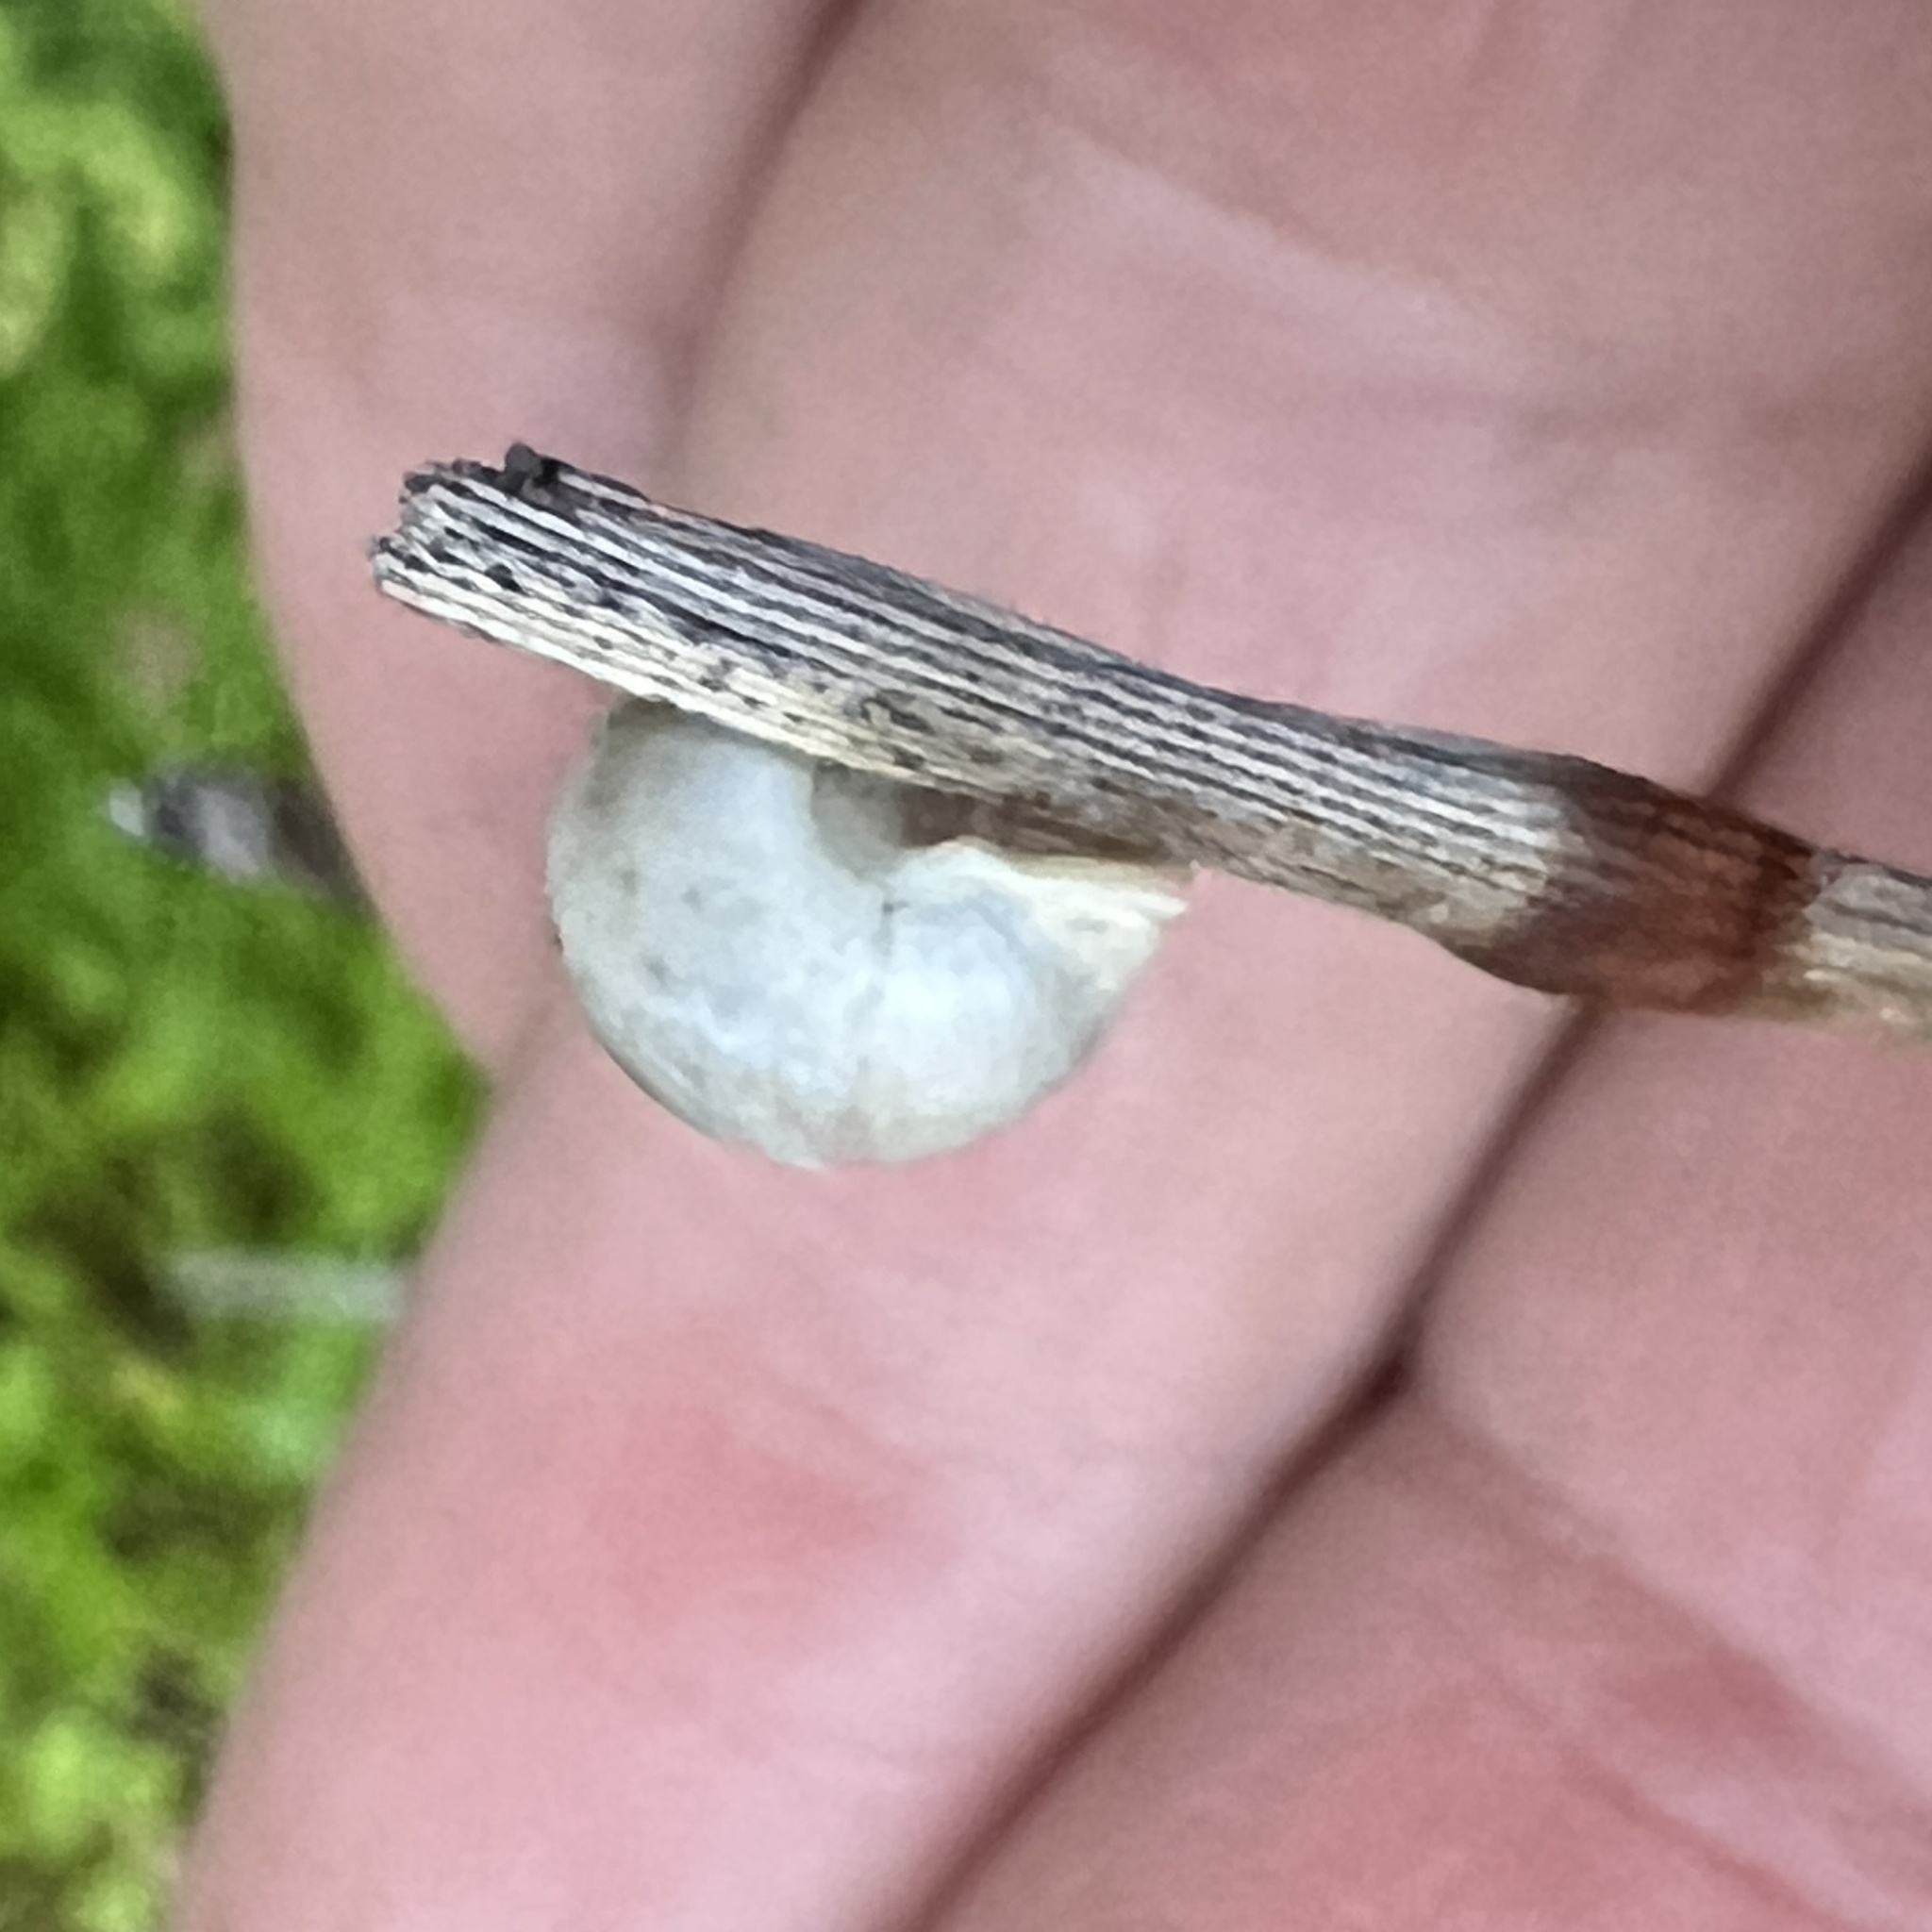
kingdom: Animalia
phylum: Mollusca
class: Gastropoda
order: Cycloneritida
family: Helicinidae
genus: Helicina
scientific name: Helicina orbiculata
